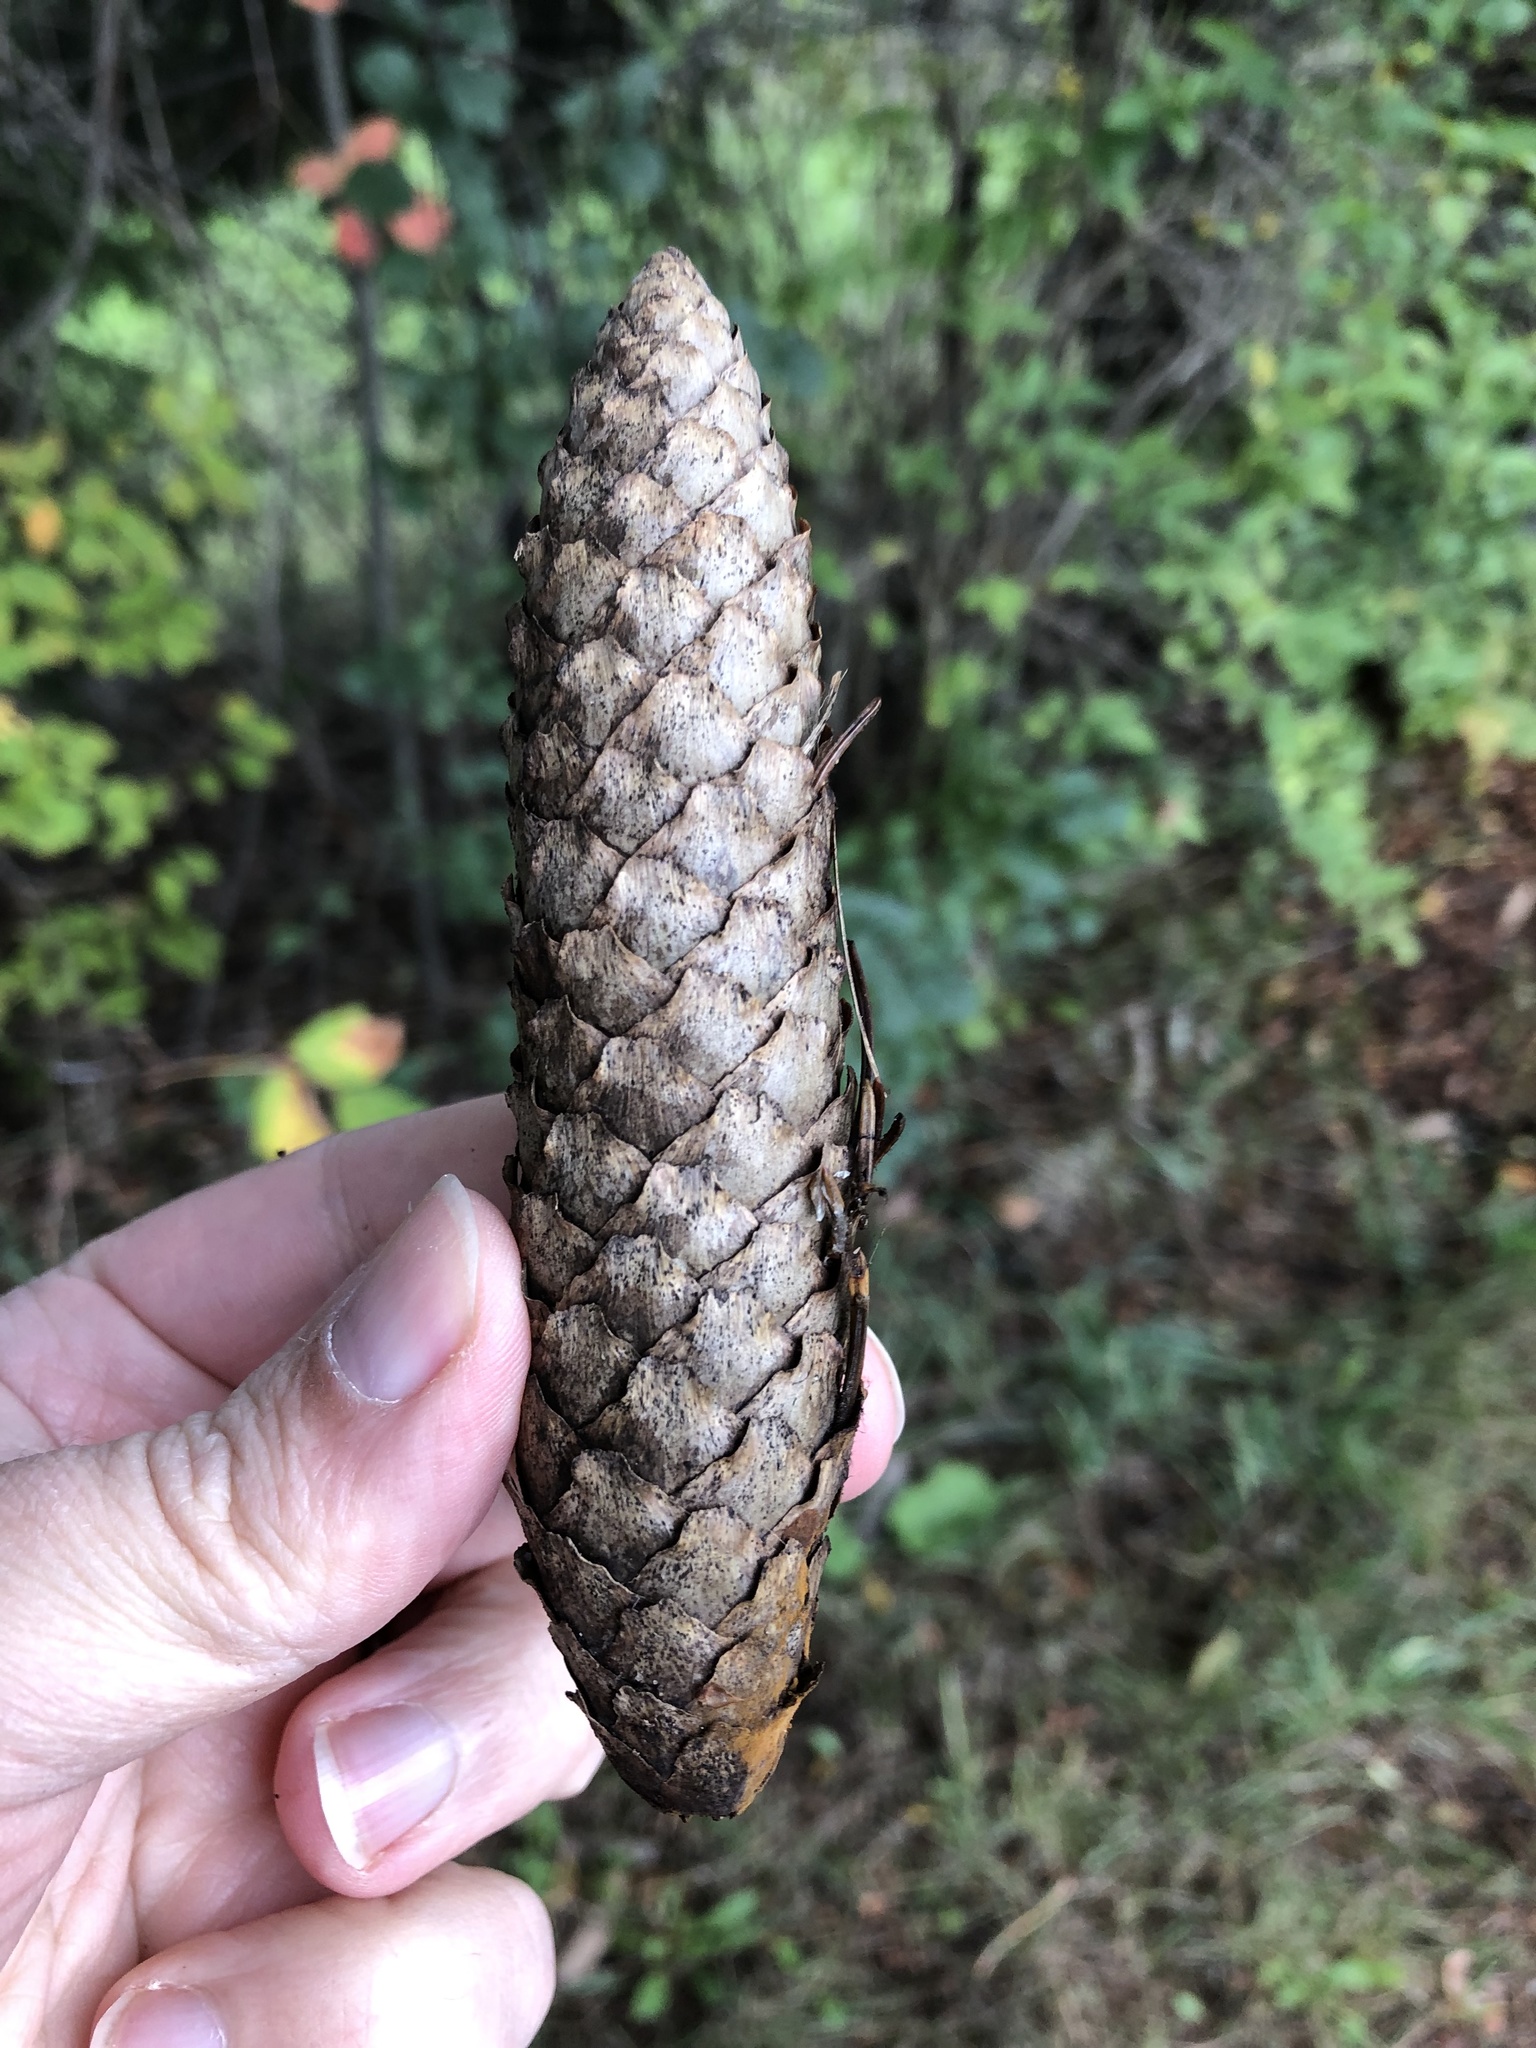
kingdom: Plantae
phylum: Tracheophyta
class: Pinopsida
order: Pinales
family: Pinaceae
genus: Picea
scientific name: Picea abies
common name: Norway spruce
